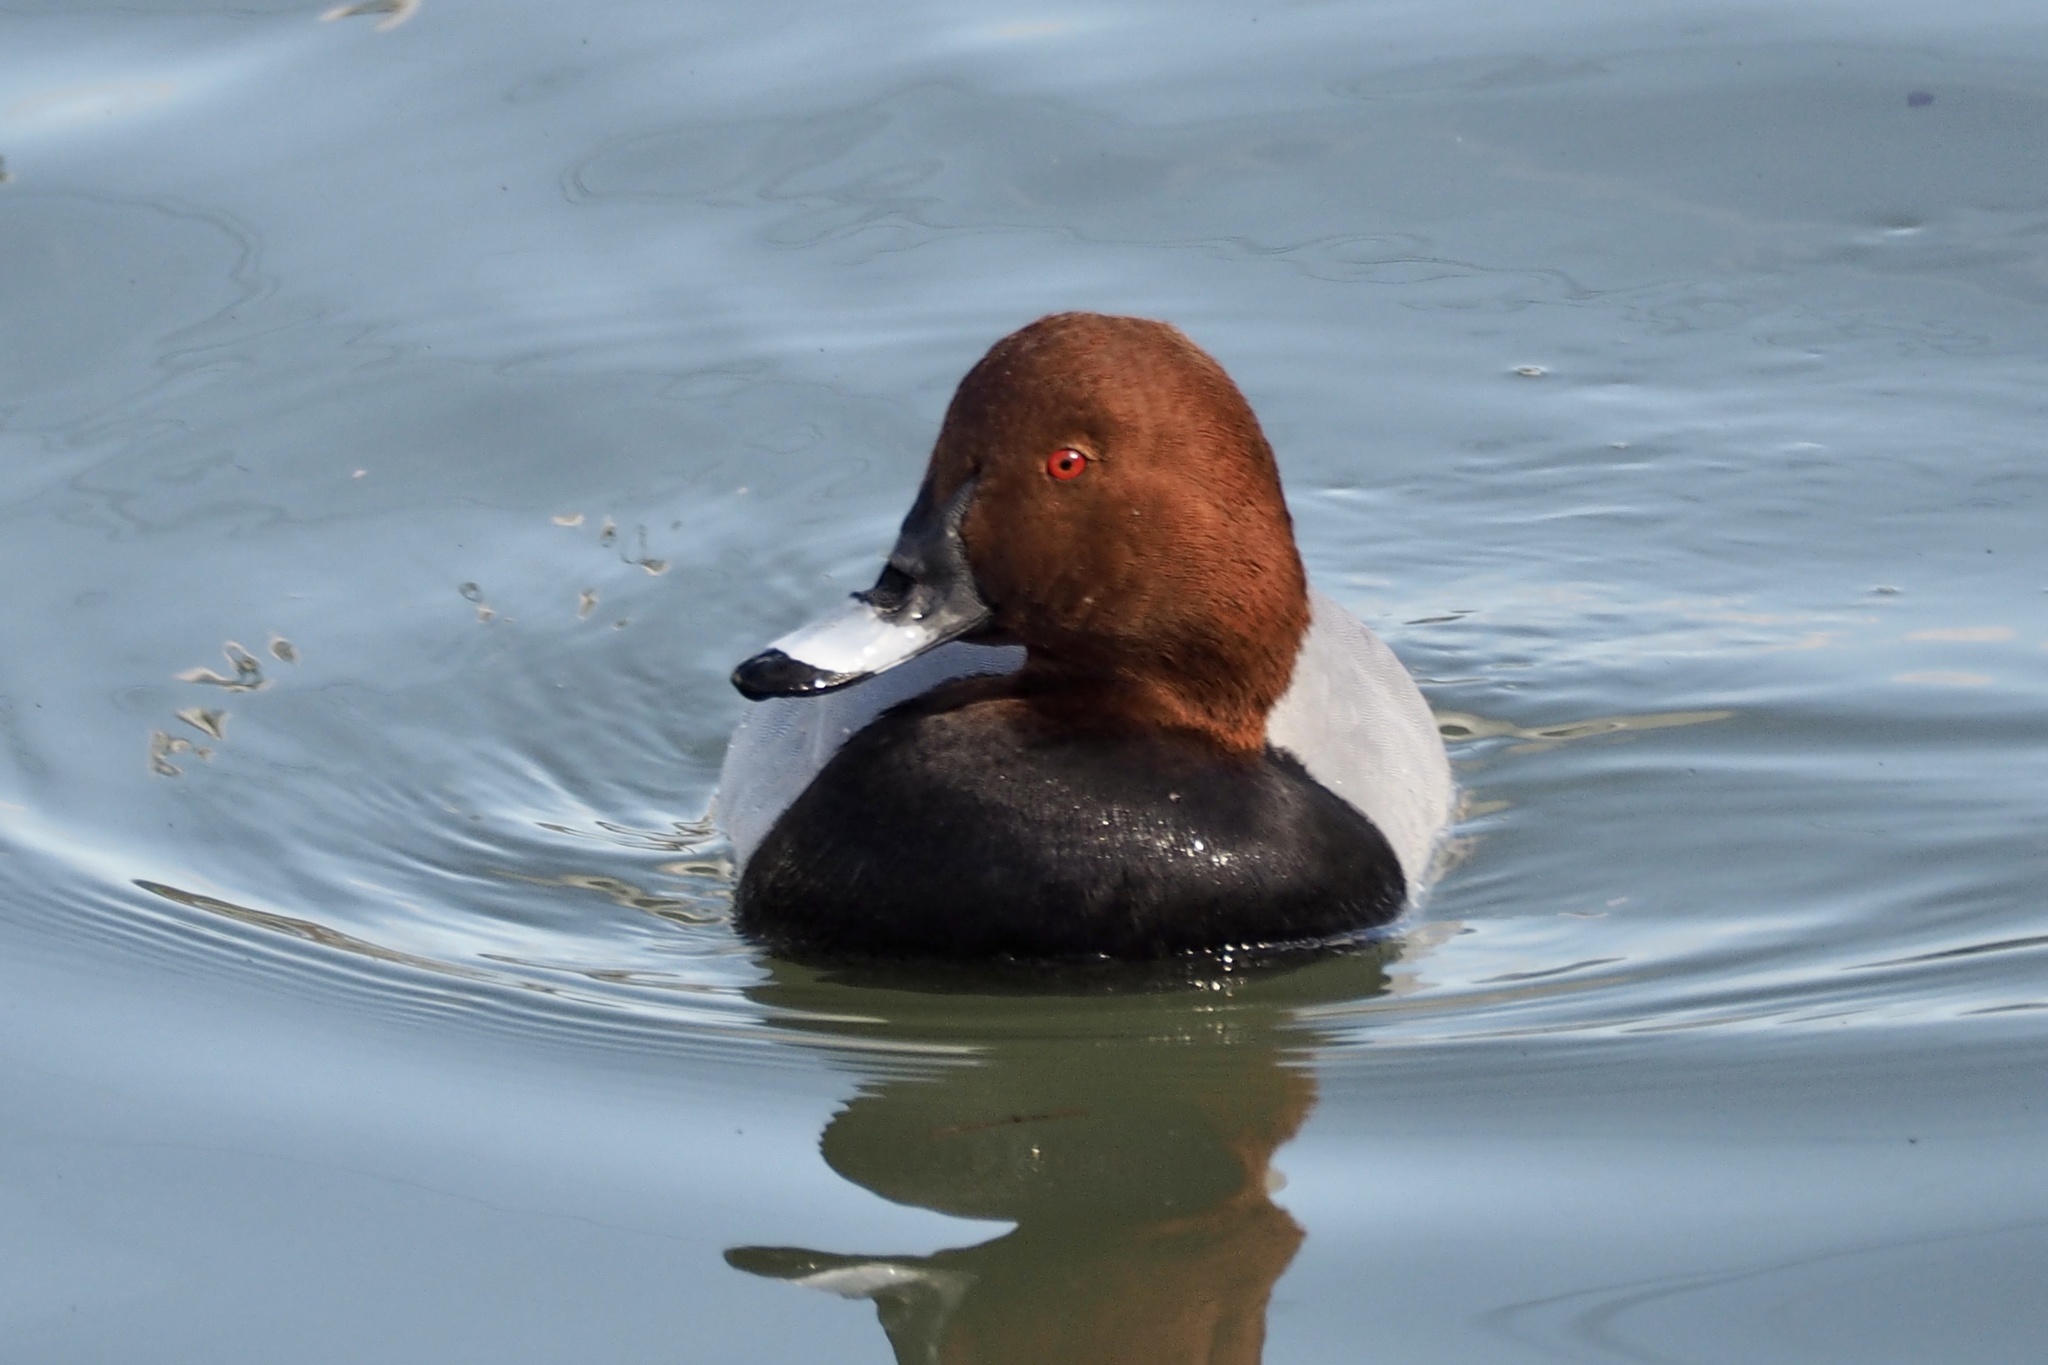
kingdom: Animalia
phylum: Chordata
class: Aves
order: Anseriformes
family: Anatidae
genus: Aythya
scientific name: Aythya ferina
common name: Common pochard
